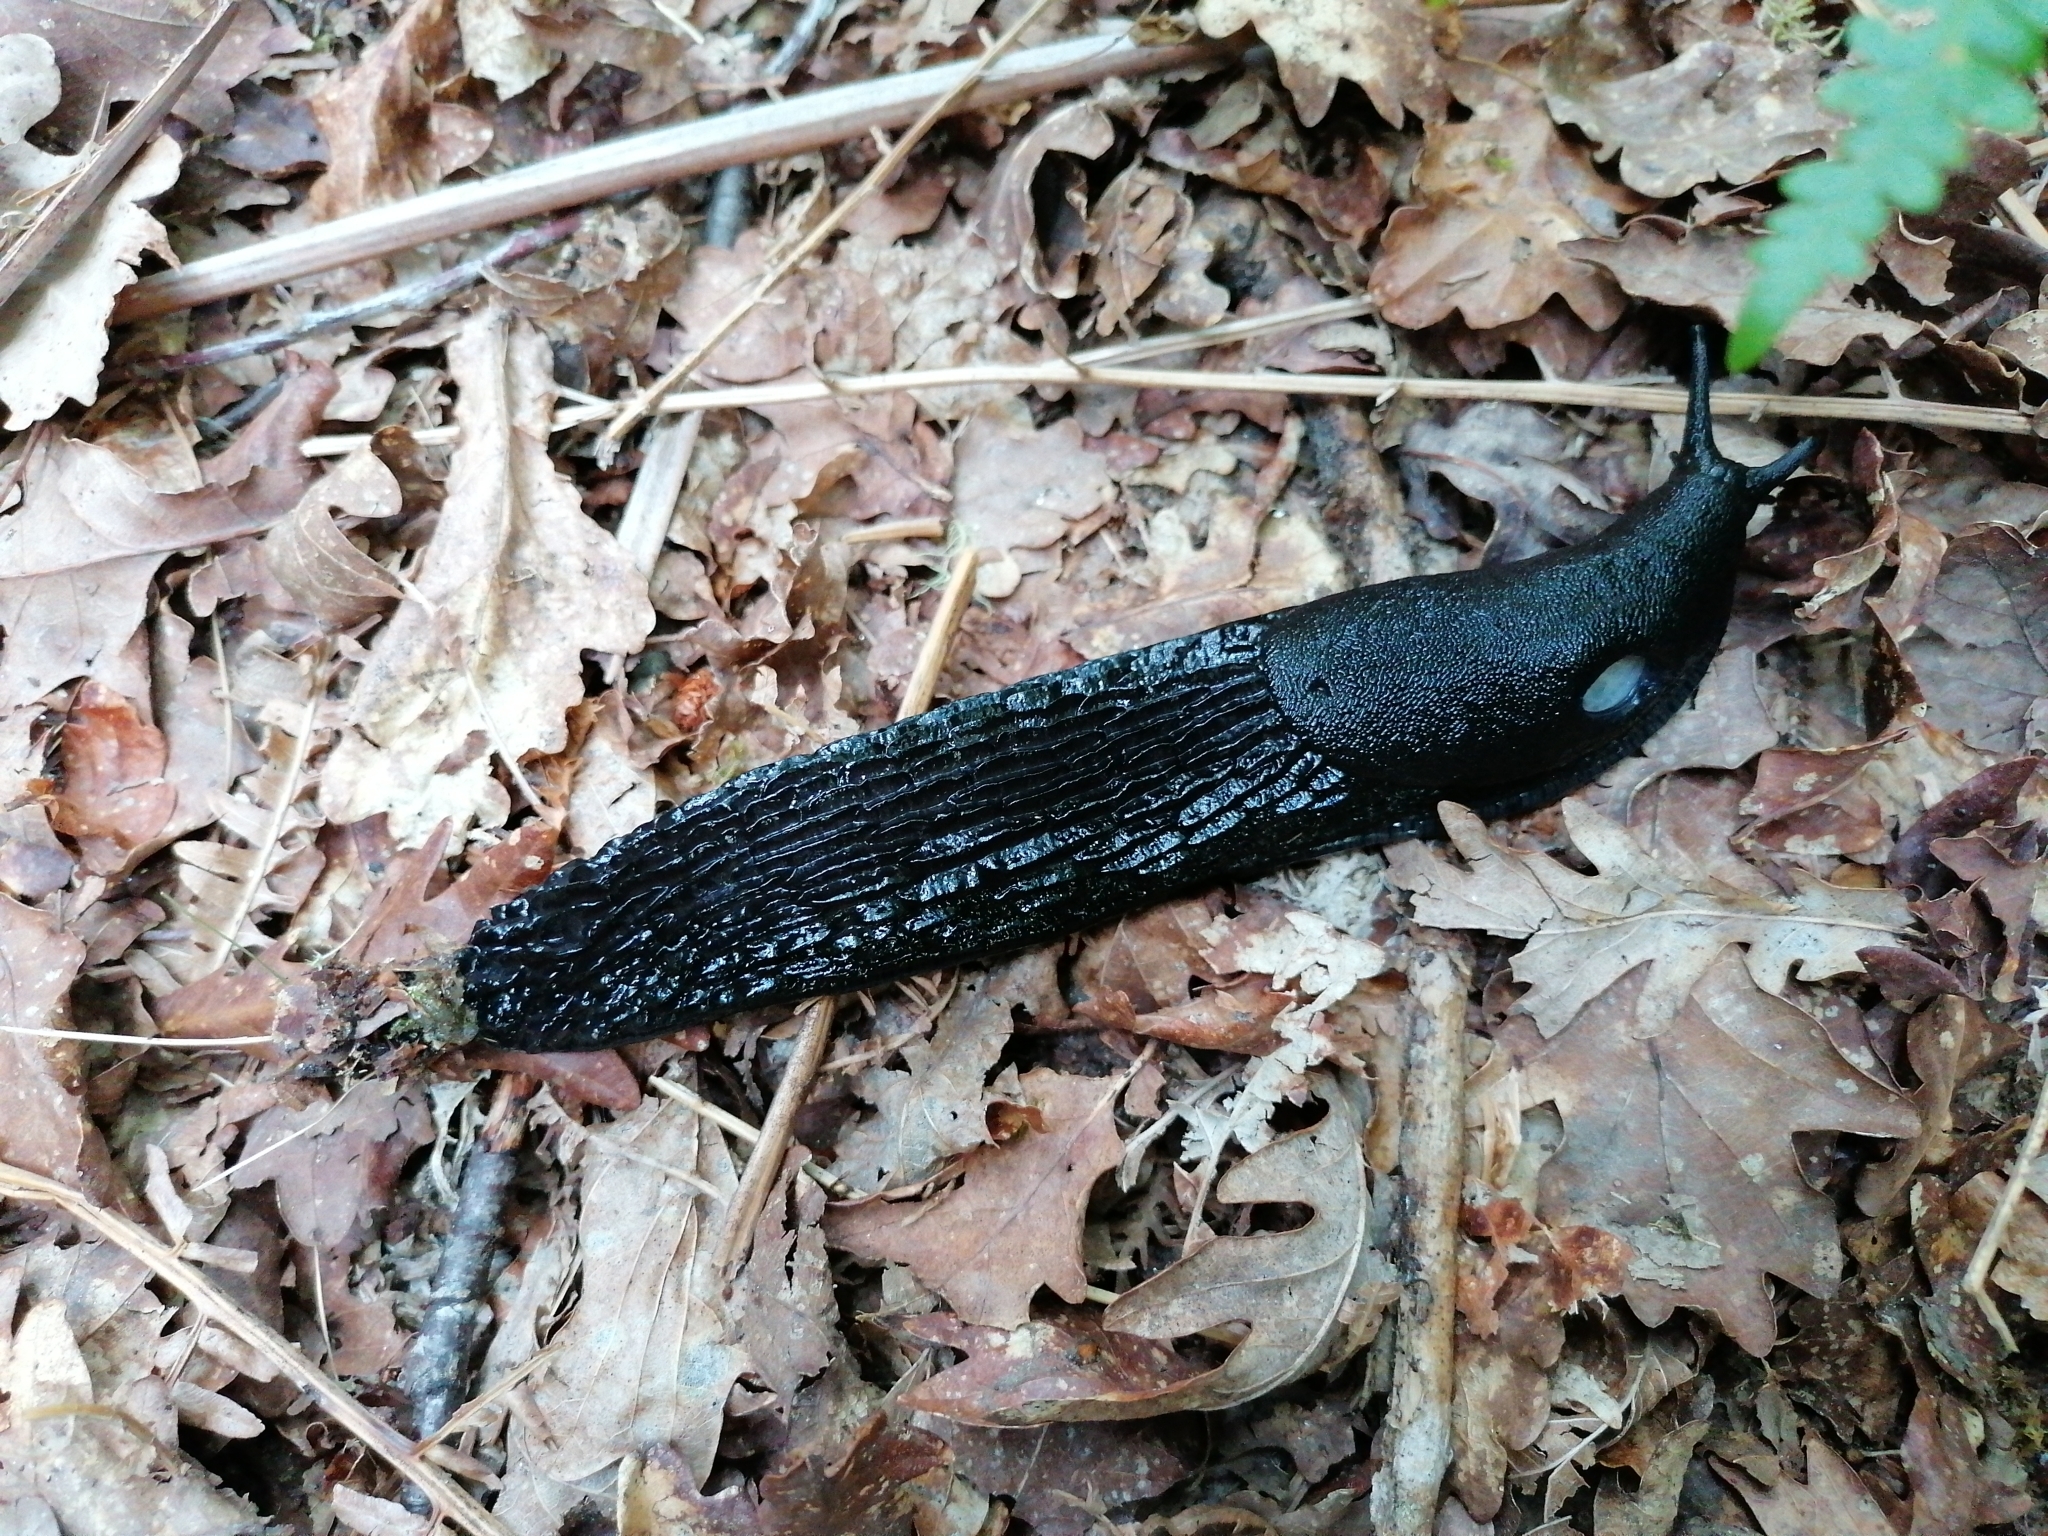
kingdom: Animalia
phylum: Mollusca
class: Gastropoda
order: Stylommatophora
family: Arionidae
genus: Arion
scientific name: Arion ater
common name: Black arion
